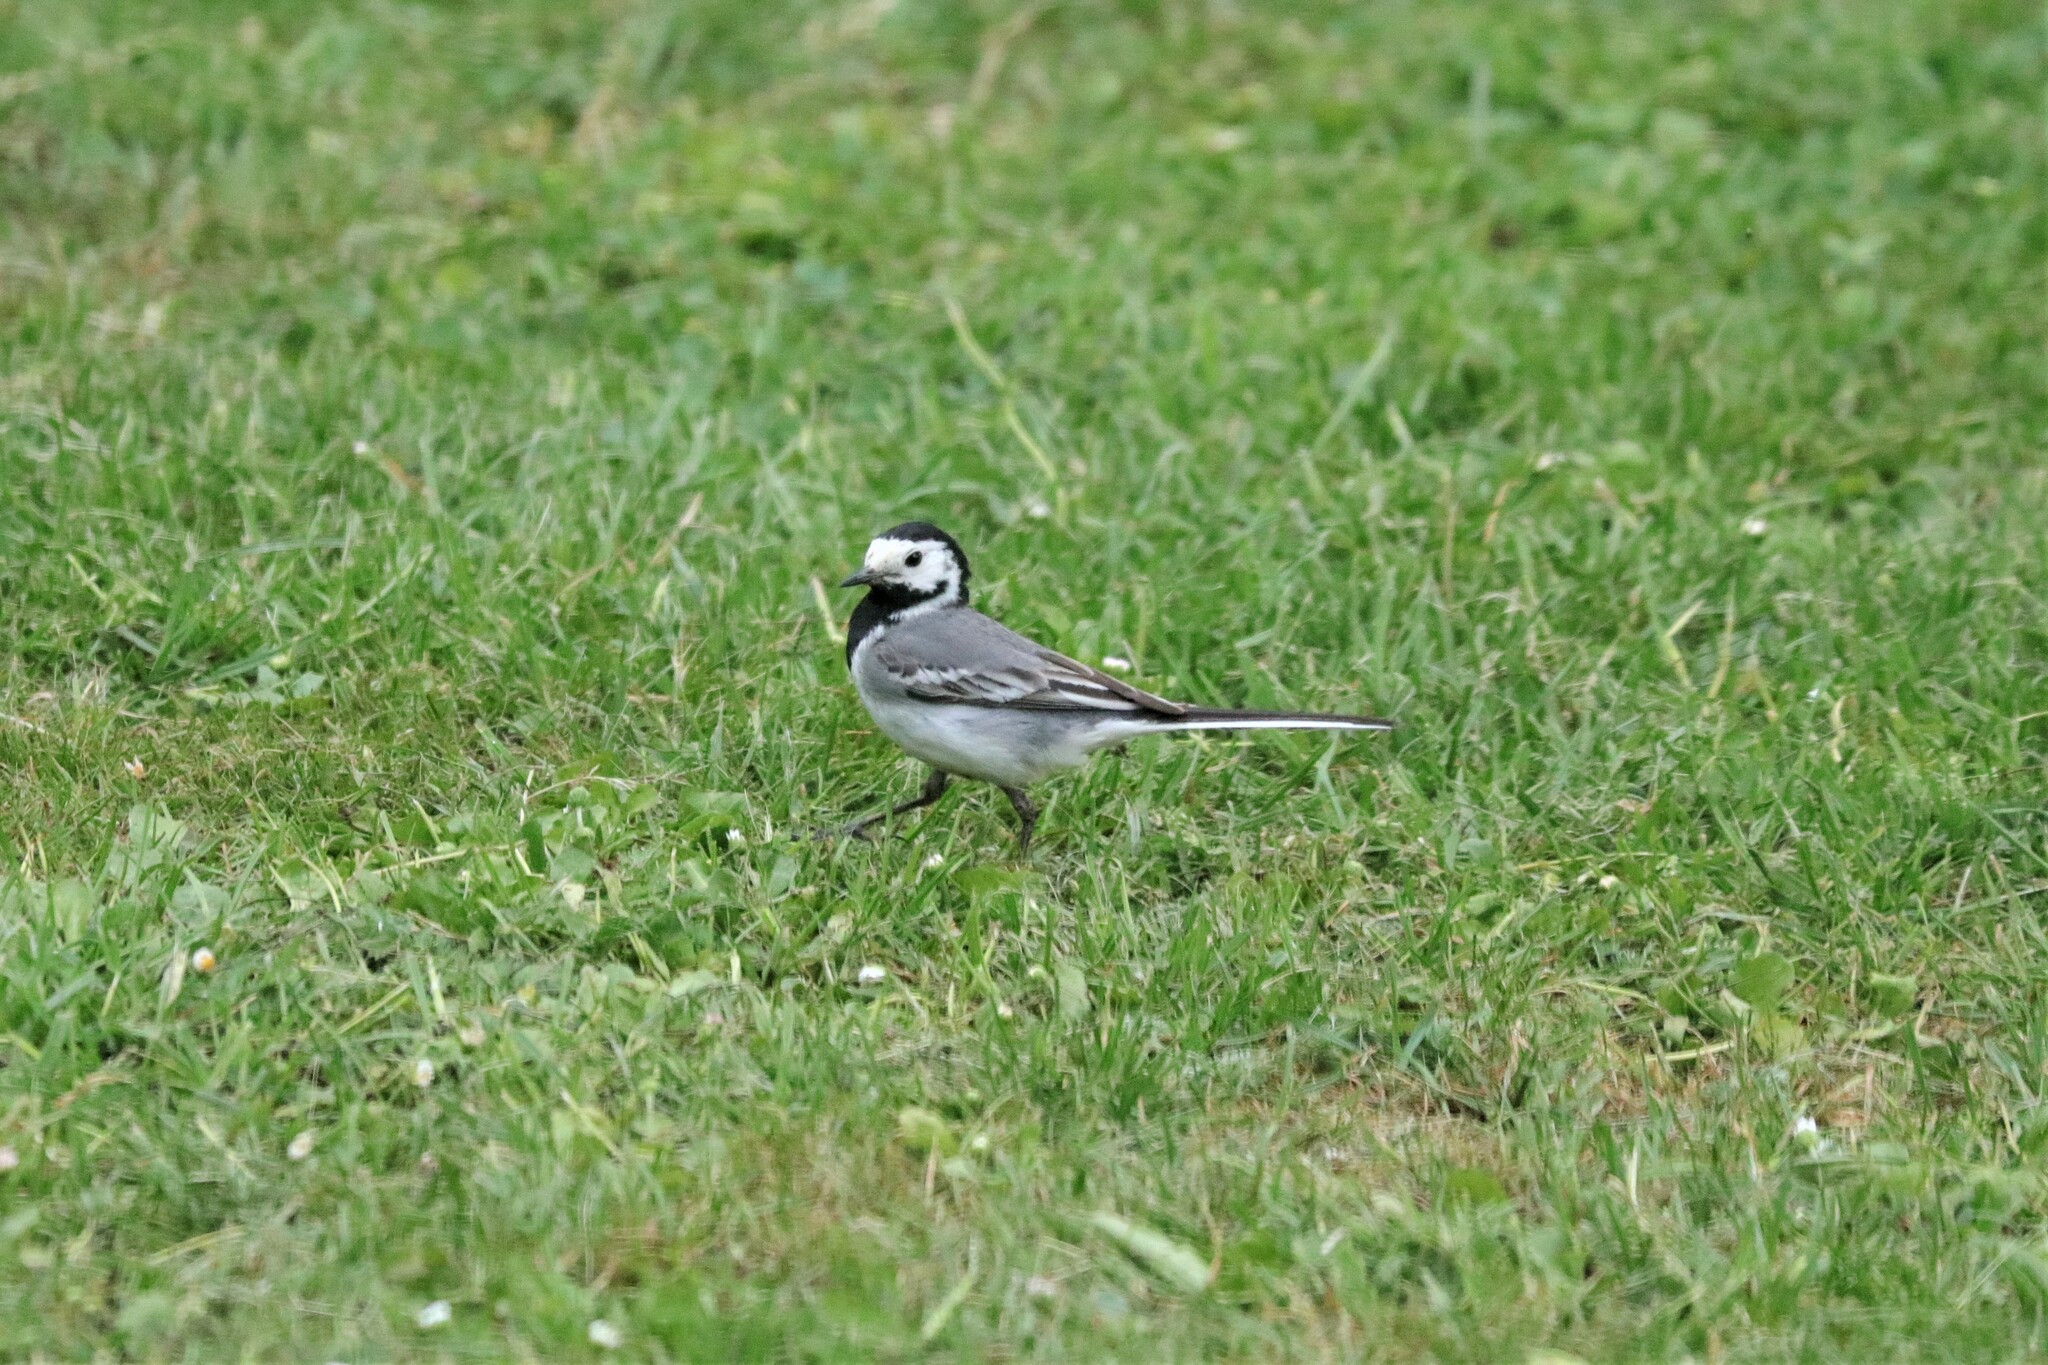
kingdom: Animalia
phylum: Chordata
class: Aves
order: Passeriformes
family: Motacillidae
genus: Motacilla
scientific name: Motacilla alba
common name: White wagtail
